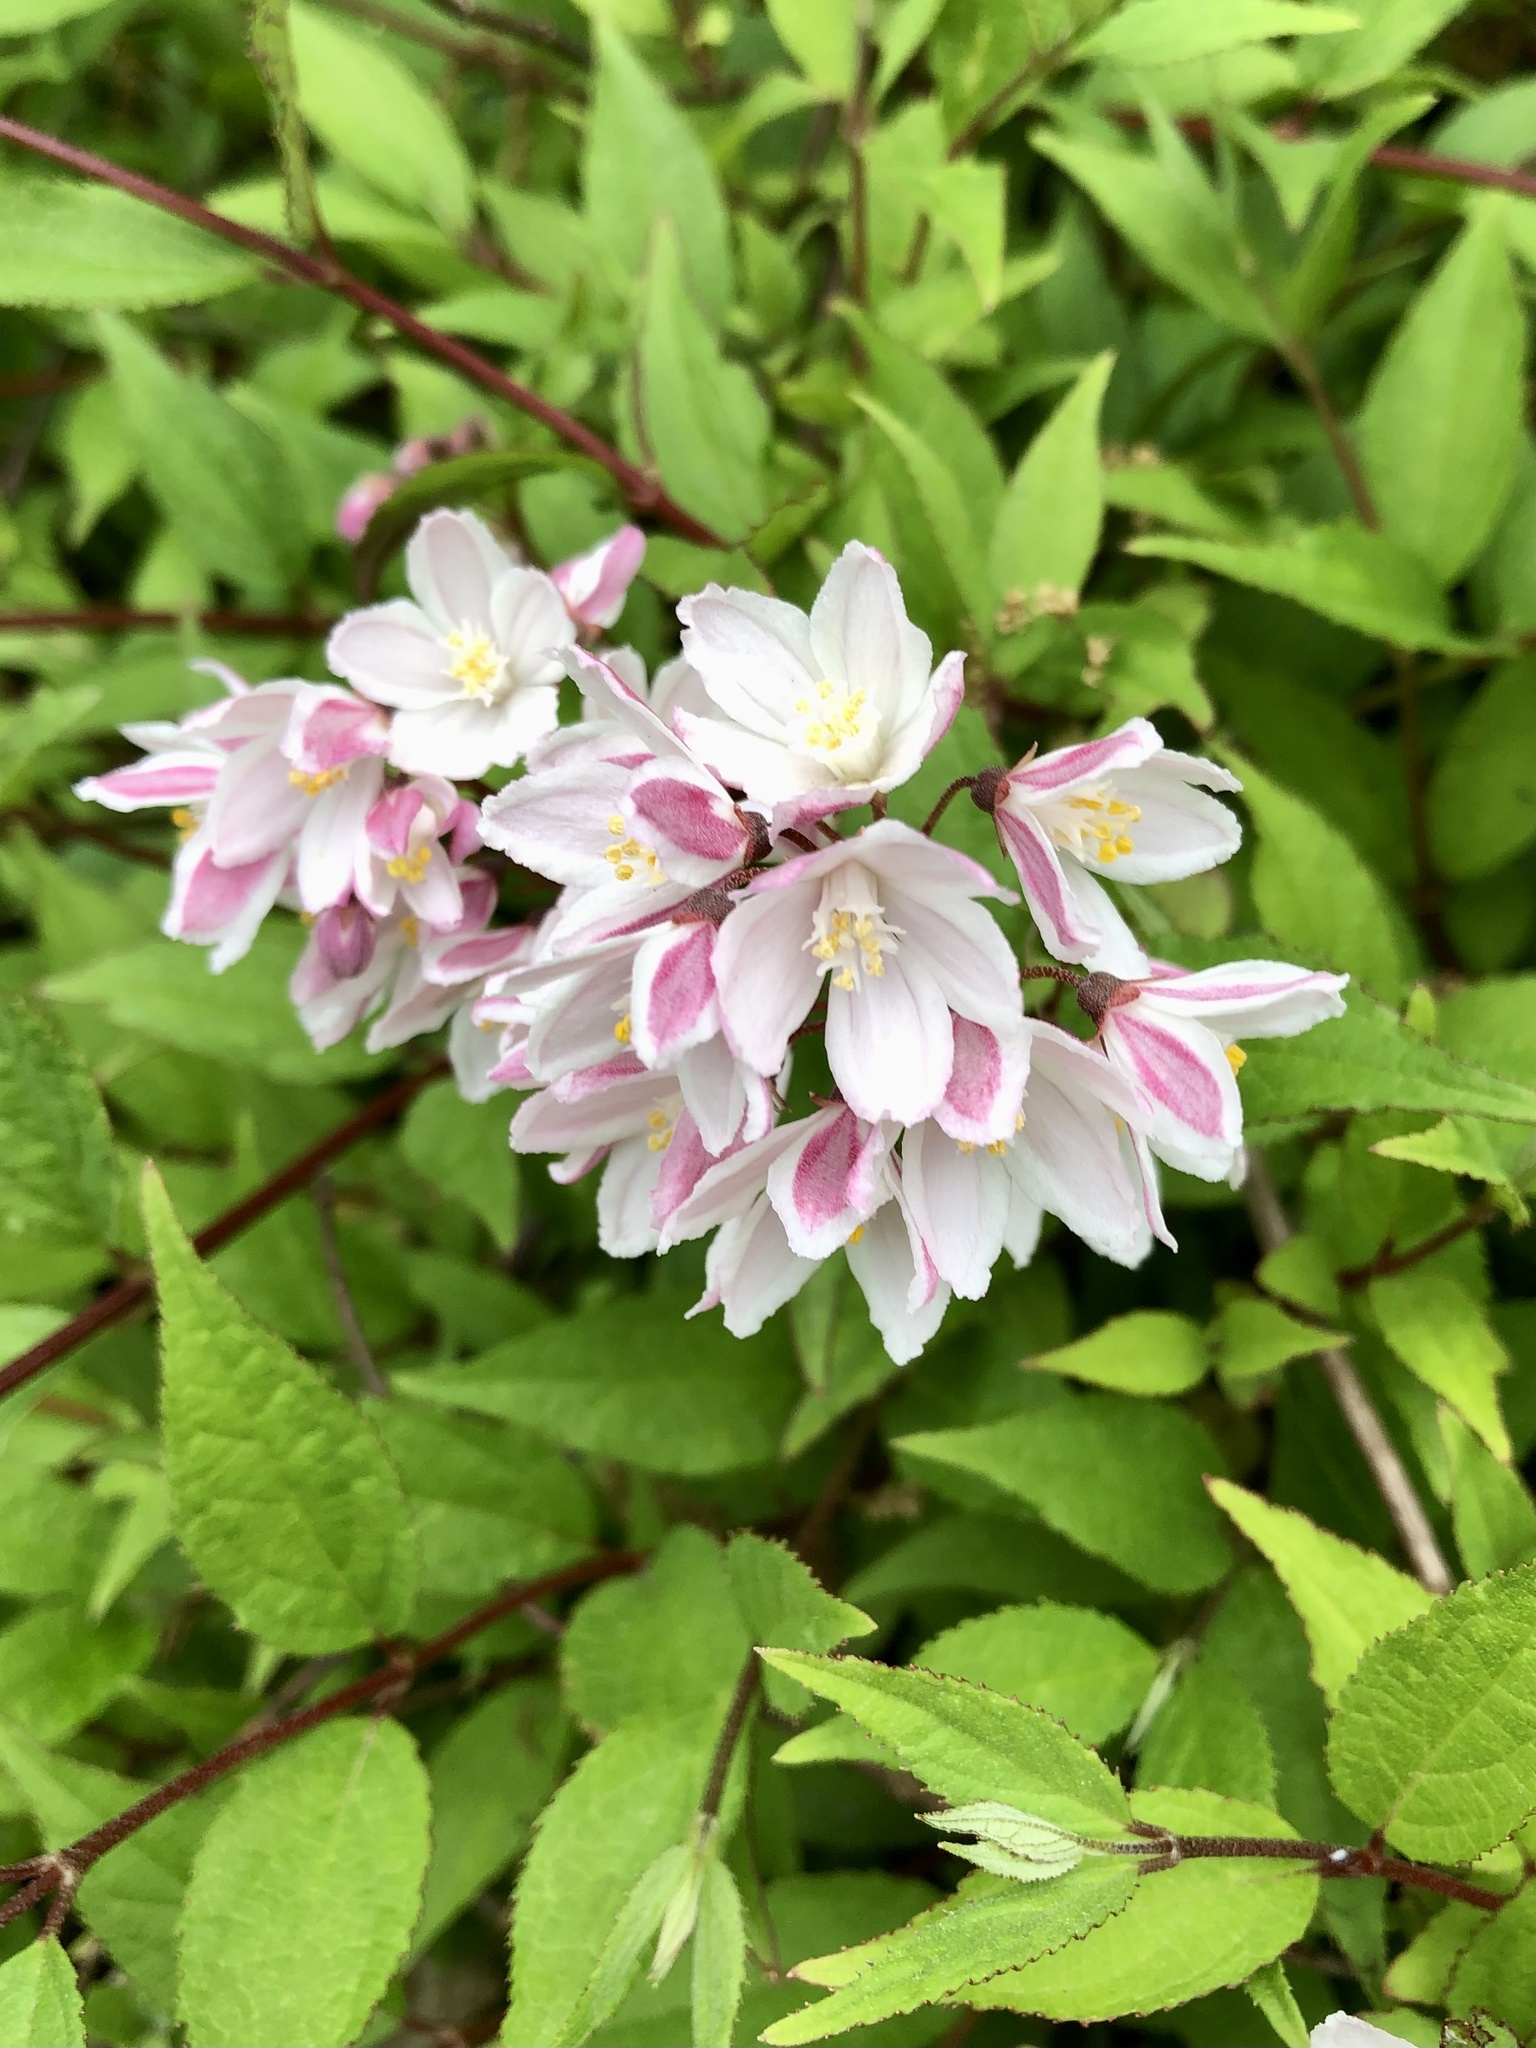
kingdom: Plantae
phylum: Tracheophyta
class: Magnoliopsida
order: Cornales
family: Hydrangeaceae
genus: Deutzia
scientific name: Deutzia crenata
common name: Deutzia
